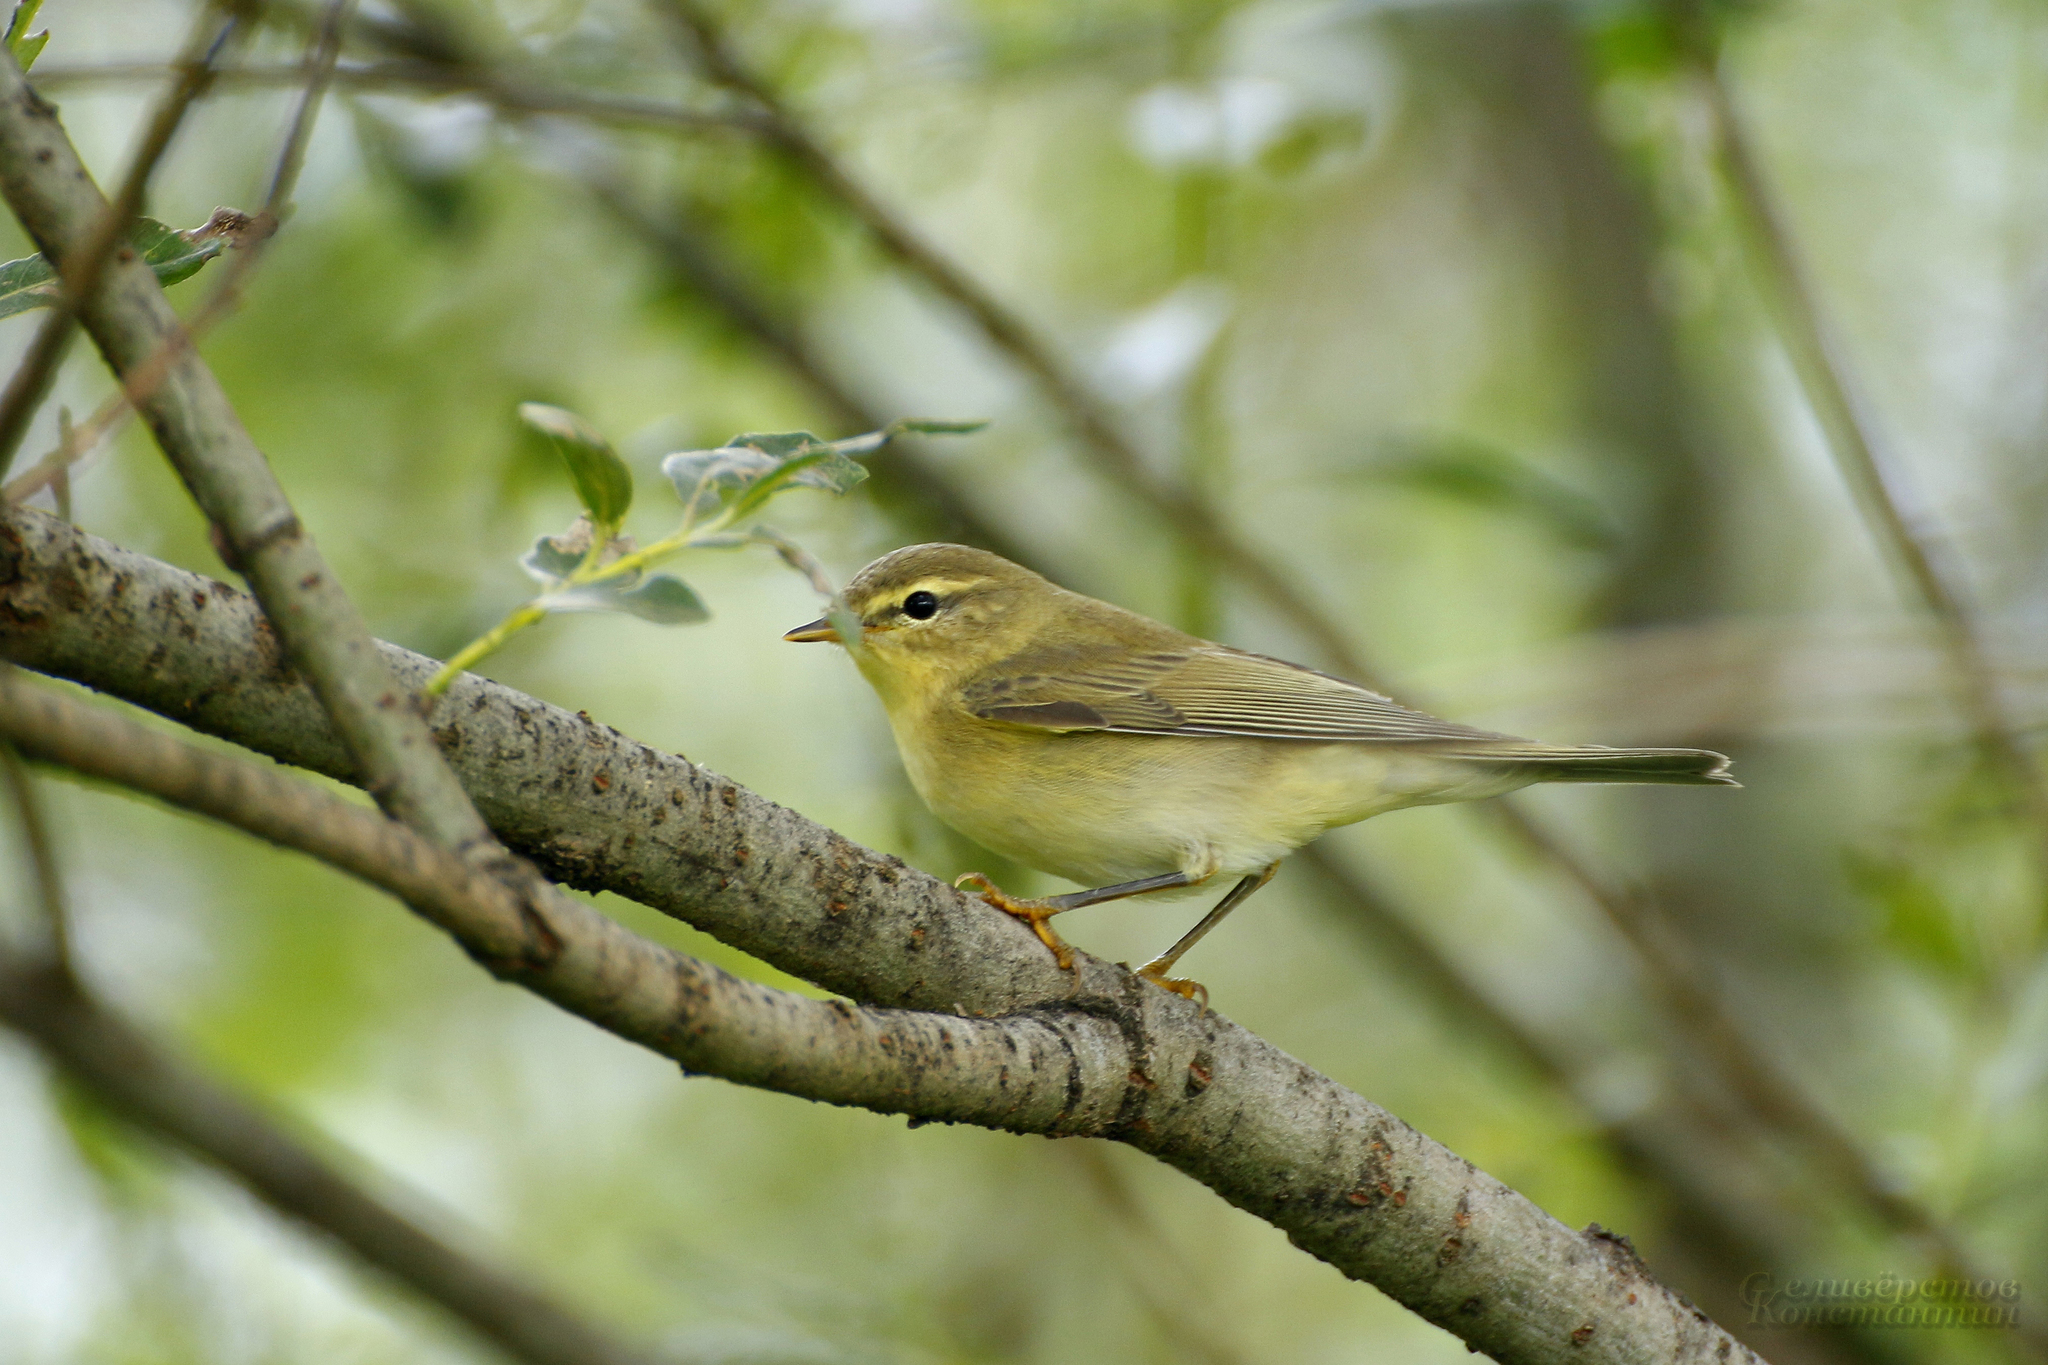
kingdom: Animalia
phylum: Chordata
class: Aves
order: Passeriformes
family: Phylloscopidae
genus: Phylloscopus
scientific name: Phylloscopus trochilus
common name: Willow warbler
